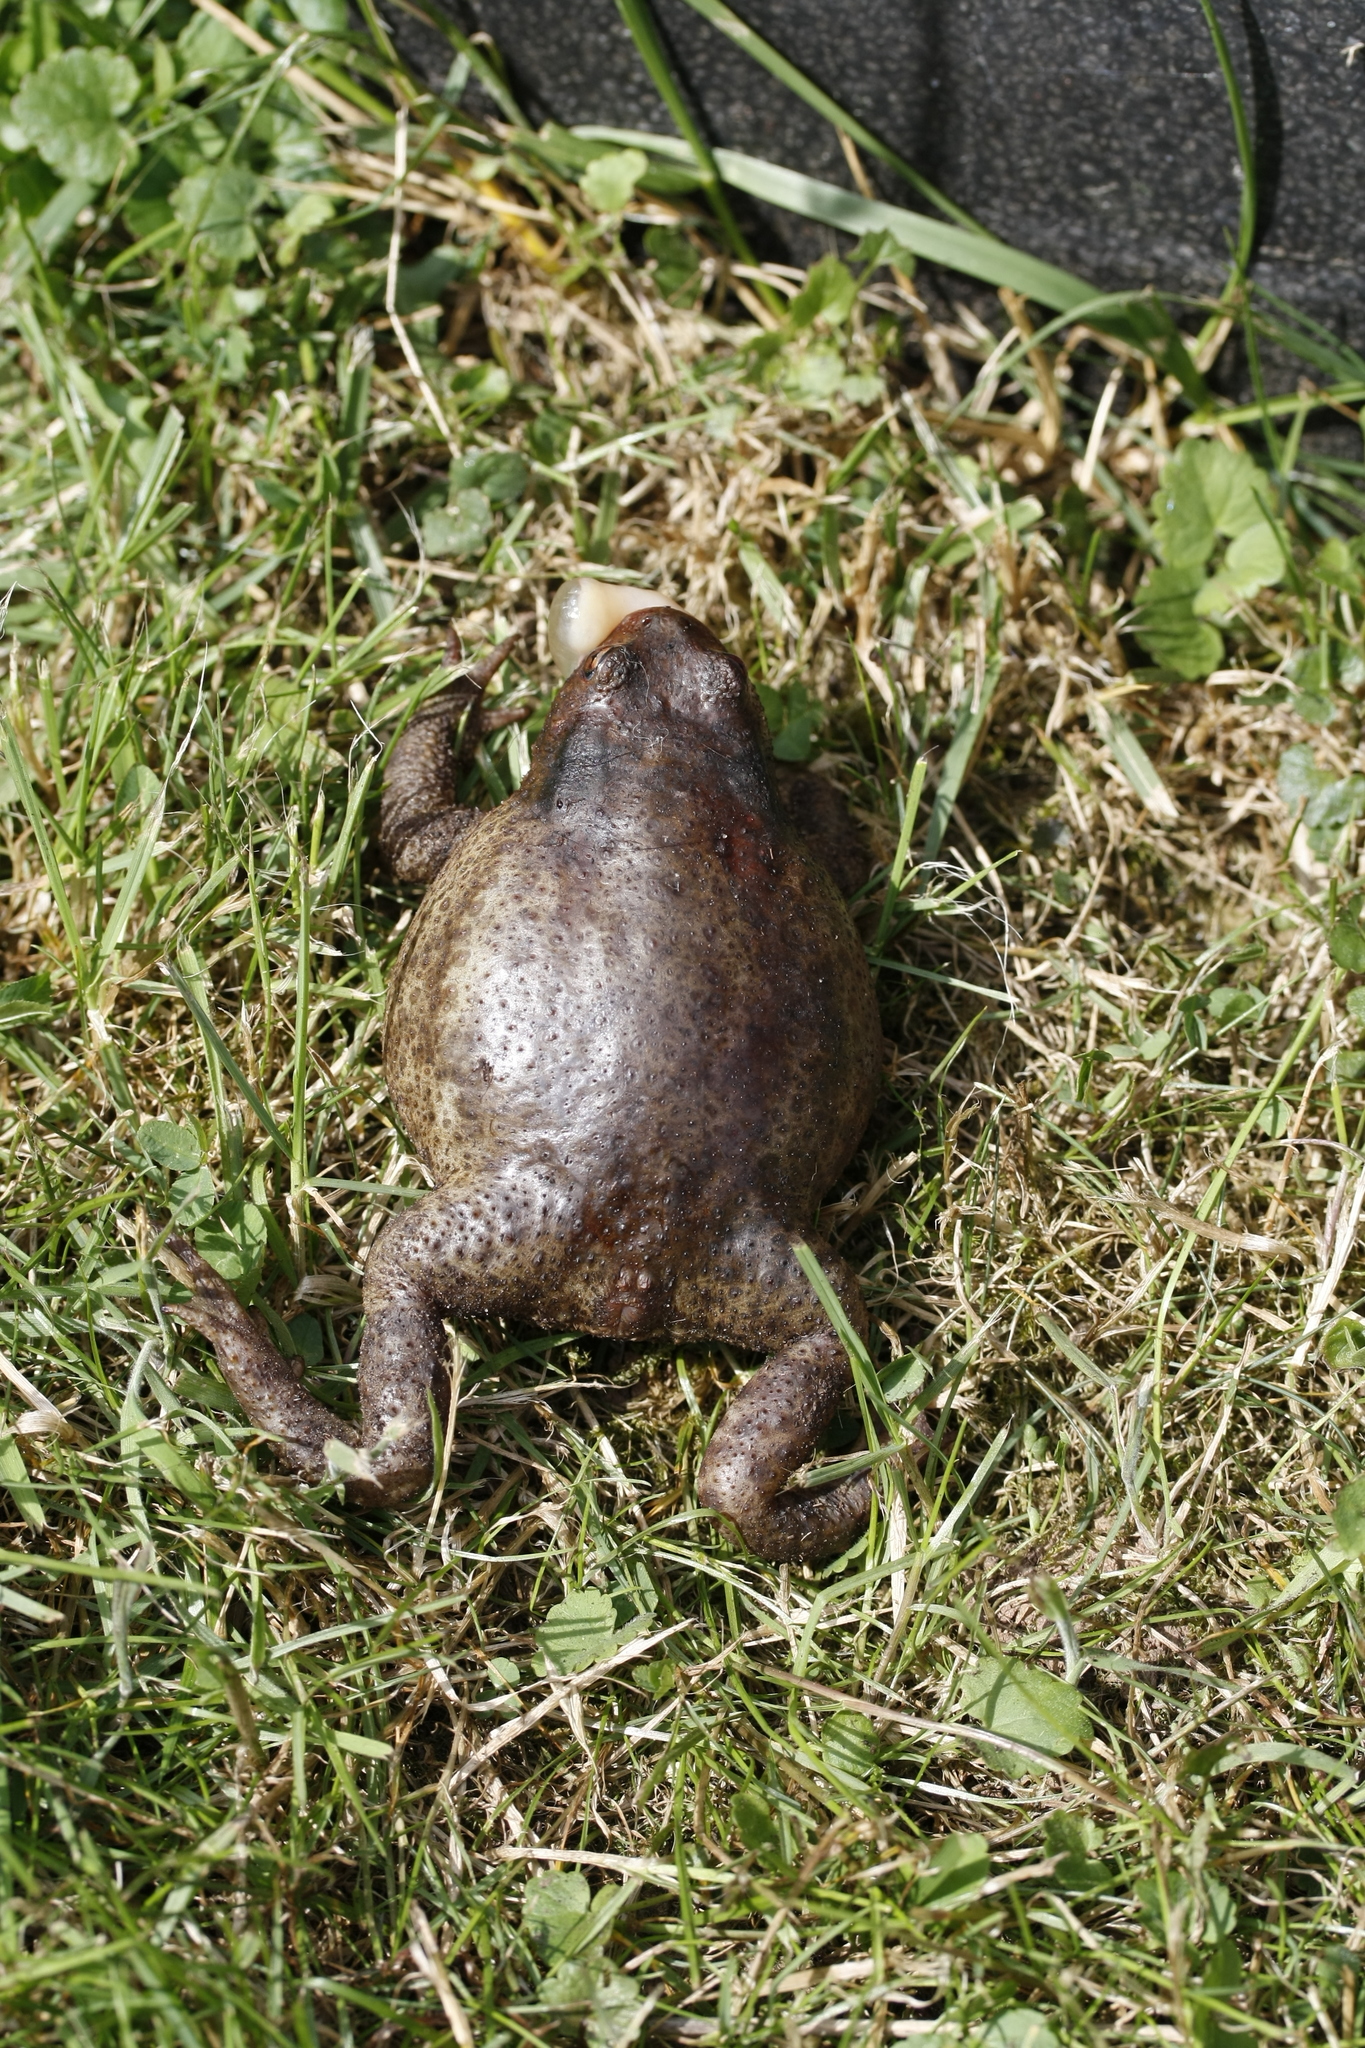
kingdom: Animalia
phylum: Chordata
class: Amphibia
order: Anura
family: Bufonidae
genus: Bufo
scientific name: Bufo bufo
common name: Common toad
